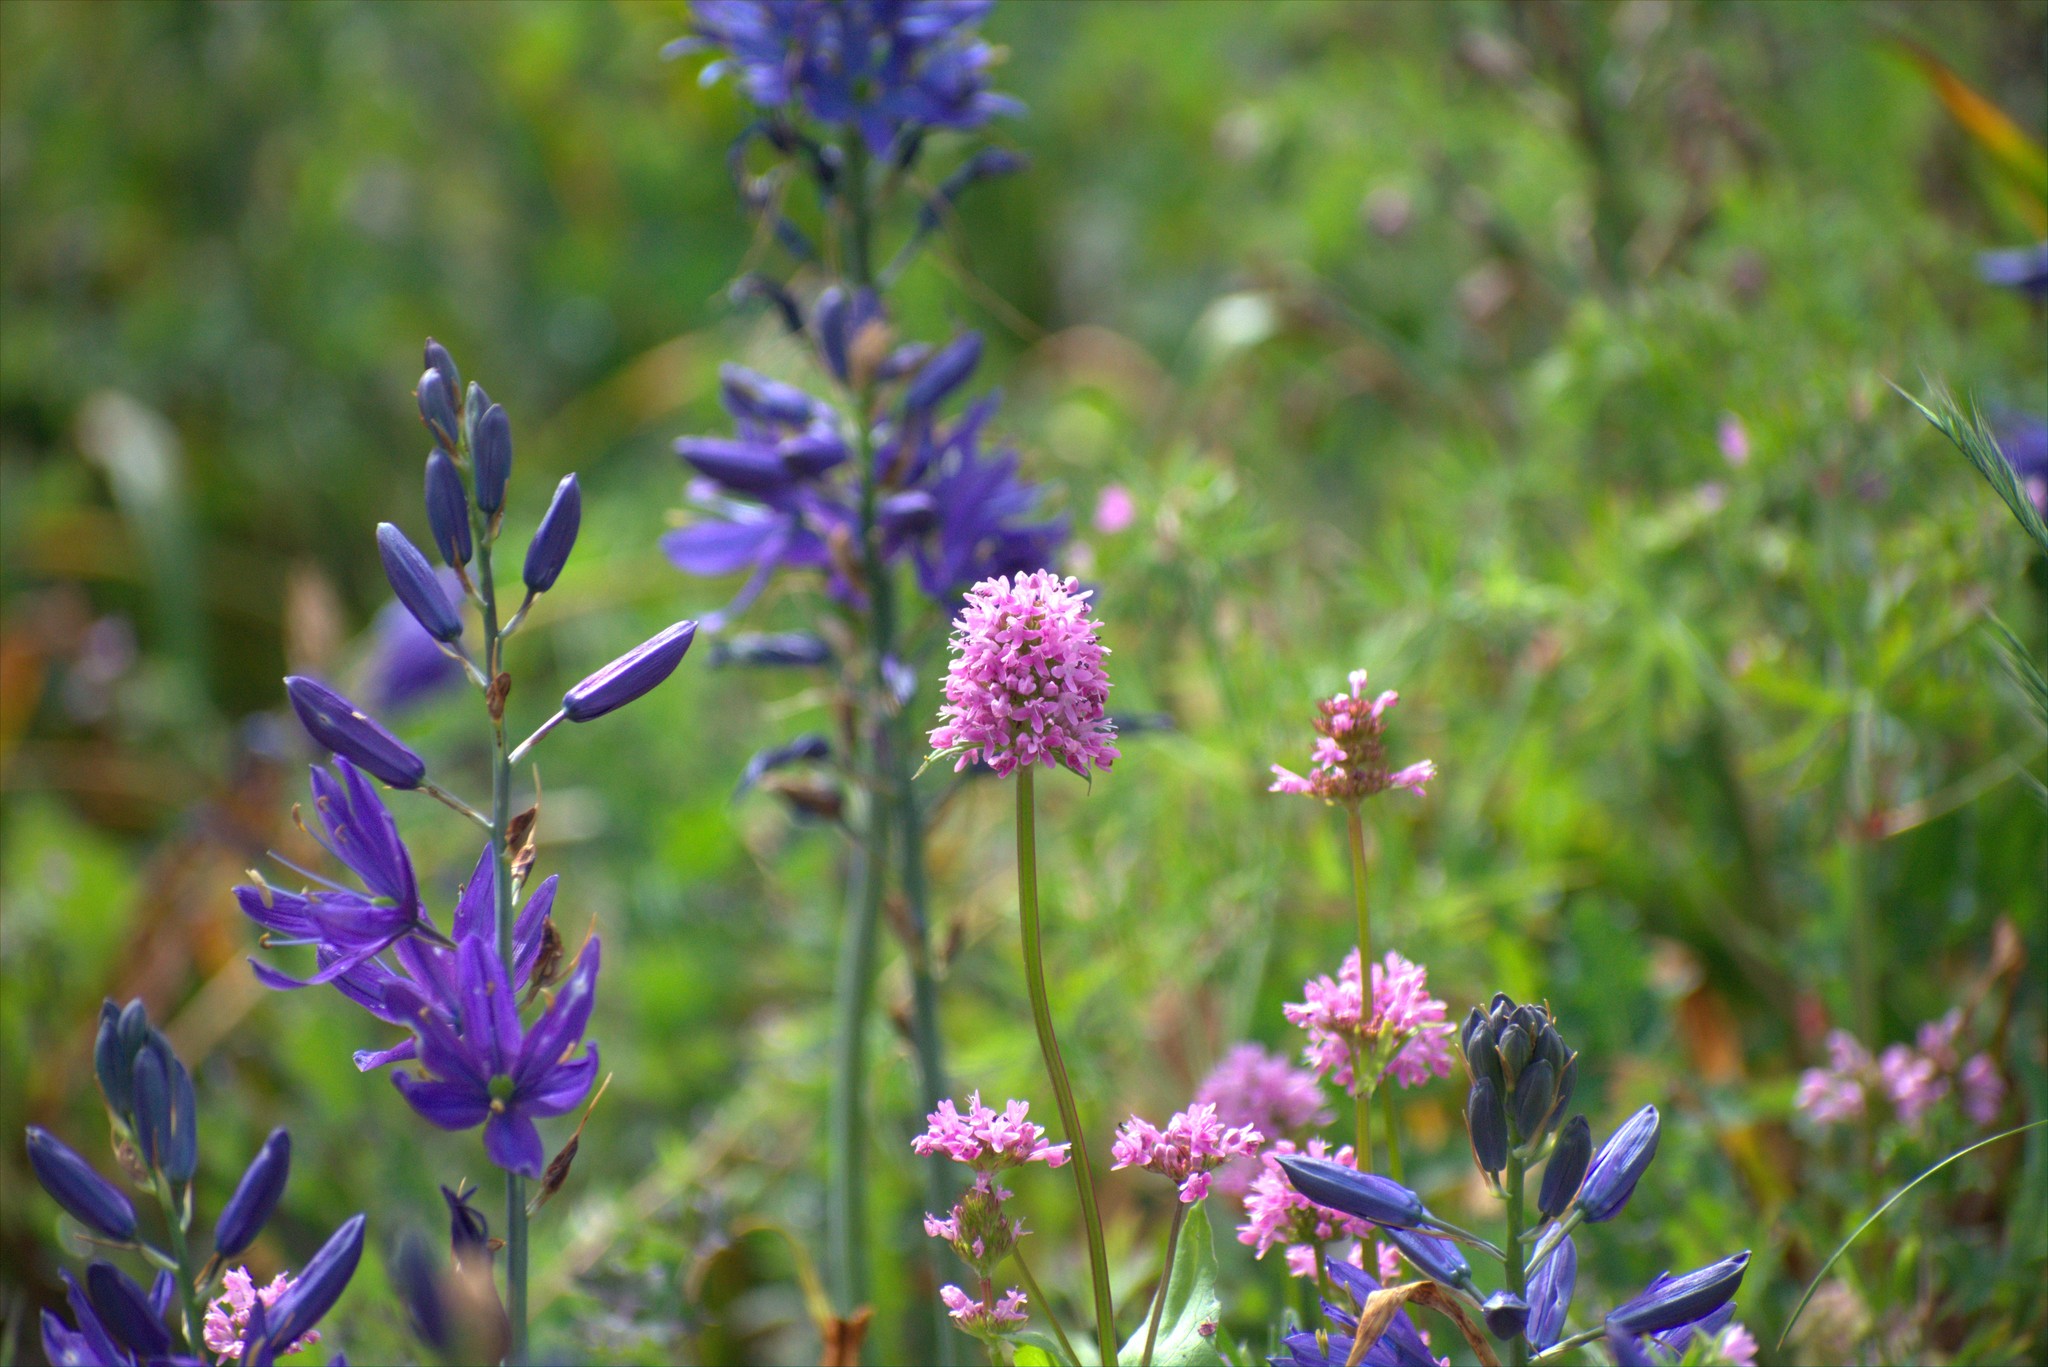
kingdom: Plantae
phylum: Tracheophyta
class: Magnoliopsida
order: Dipsacales
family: Caprifoliaceae
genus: Plectritis
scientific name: Plectritis congesta
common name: Pink plectritis
